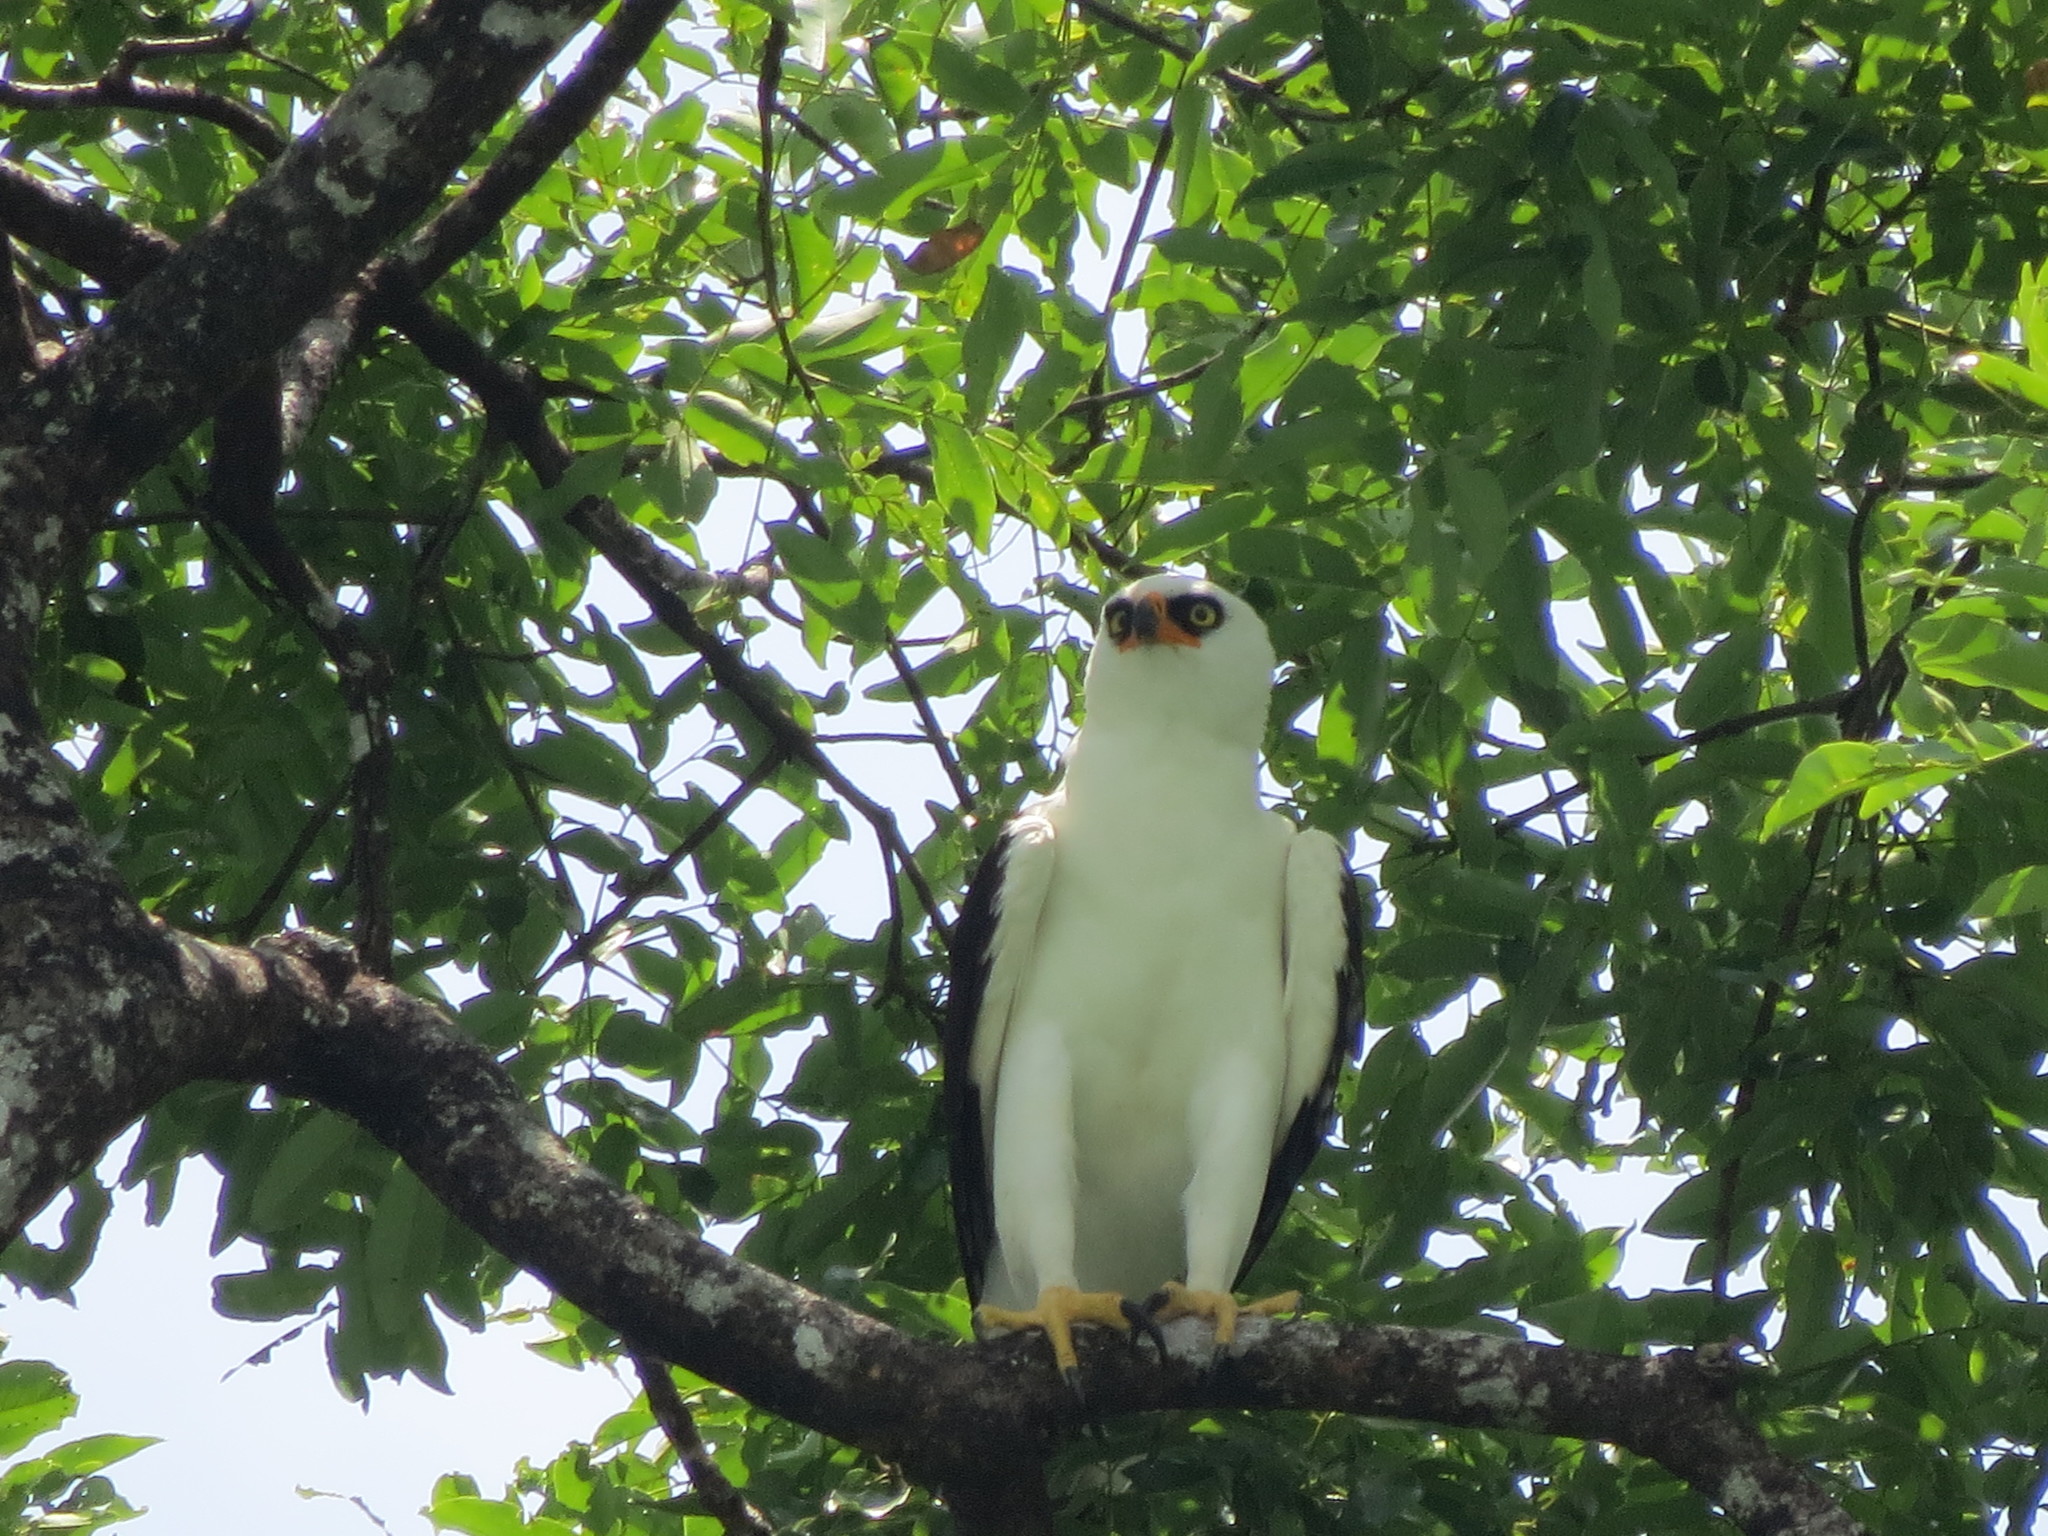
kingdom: Animalia
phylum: Chordata
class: Aves
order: Accipitriformes
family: Accipitridae
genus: Spizaetus
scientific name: Spizaetus melanoleucus
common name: Black-and-white hawk-eagle
